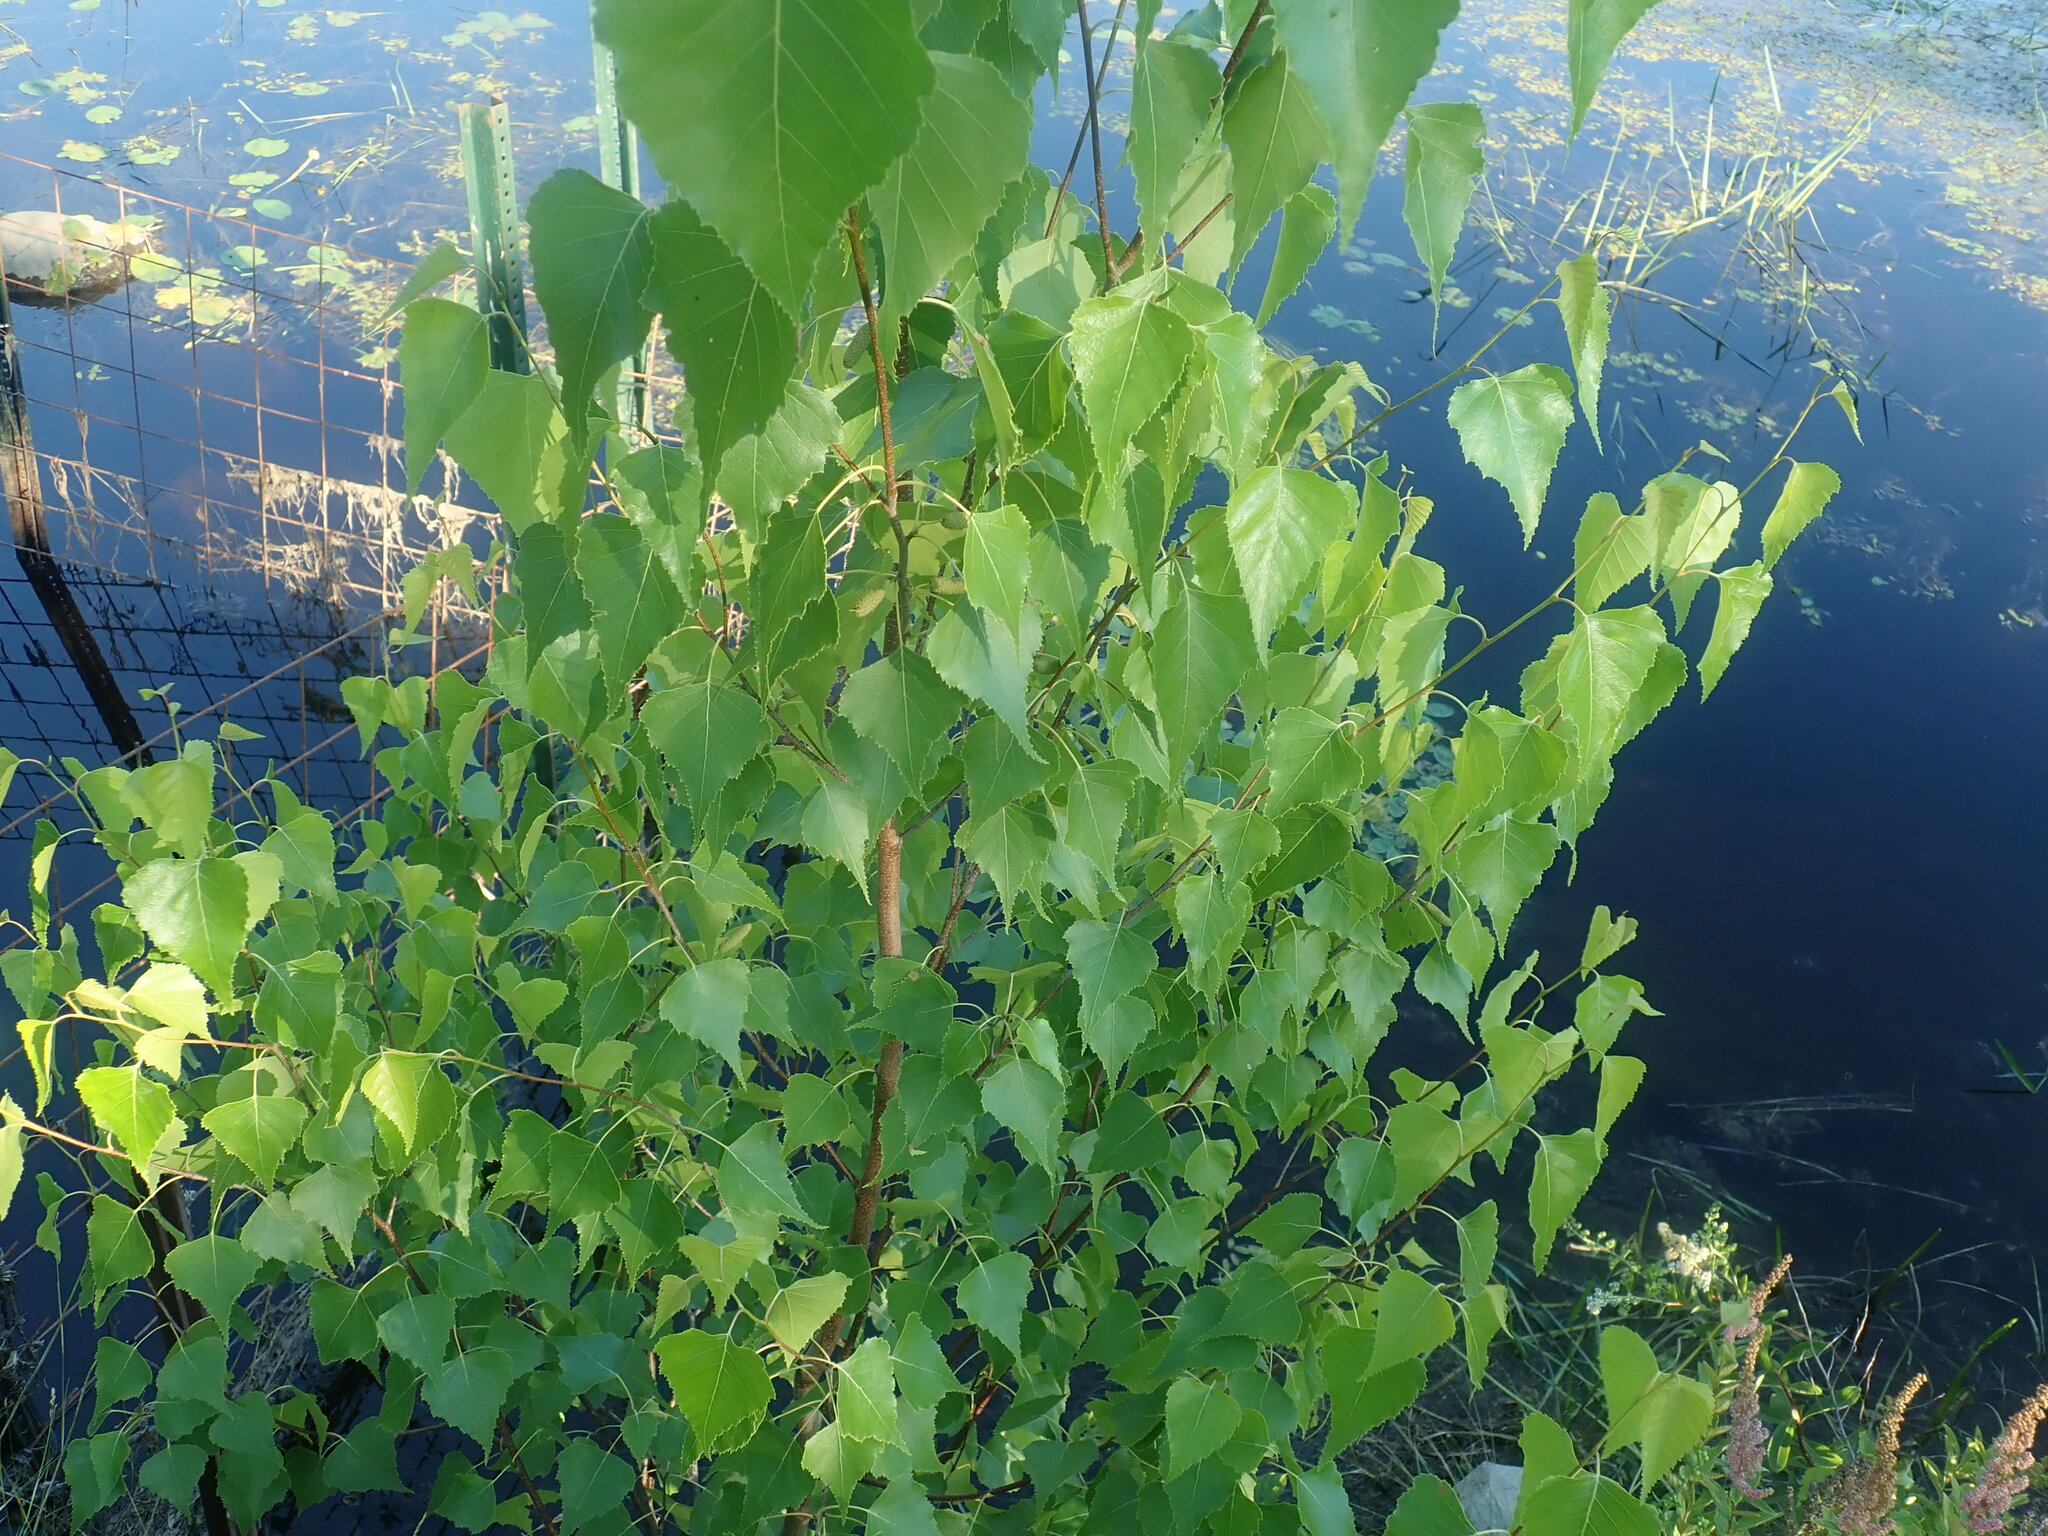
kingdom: Plantae
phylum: Tracheophyta
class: Magnoliopsida
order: Fagales
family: Betulaceae
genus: Betula
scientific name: Betula populifolia
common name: Fire birch
